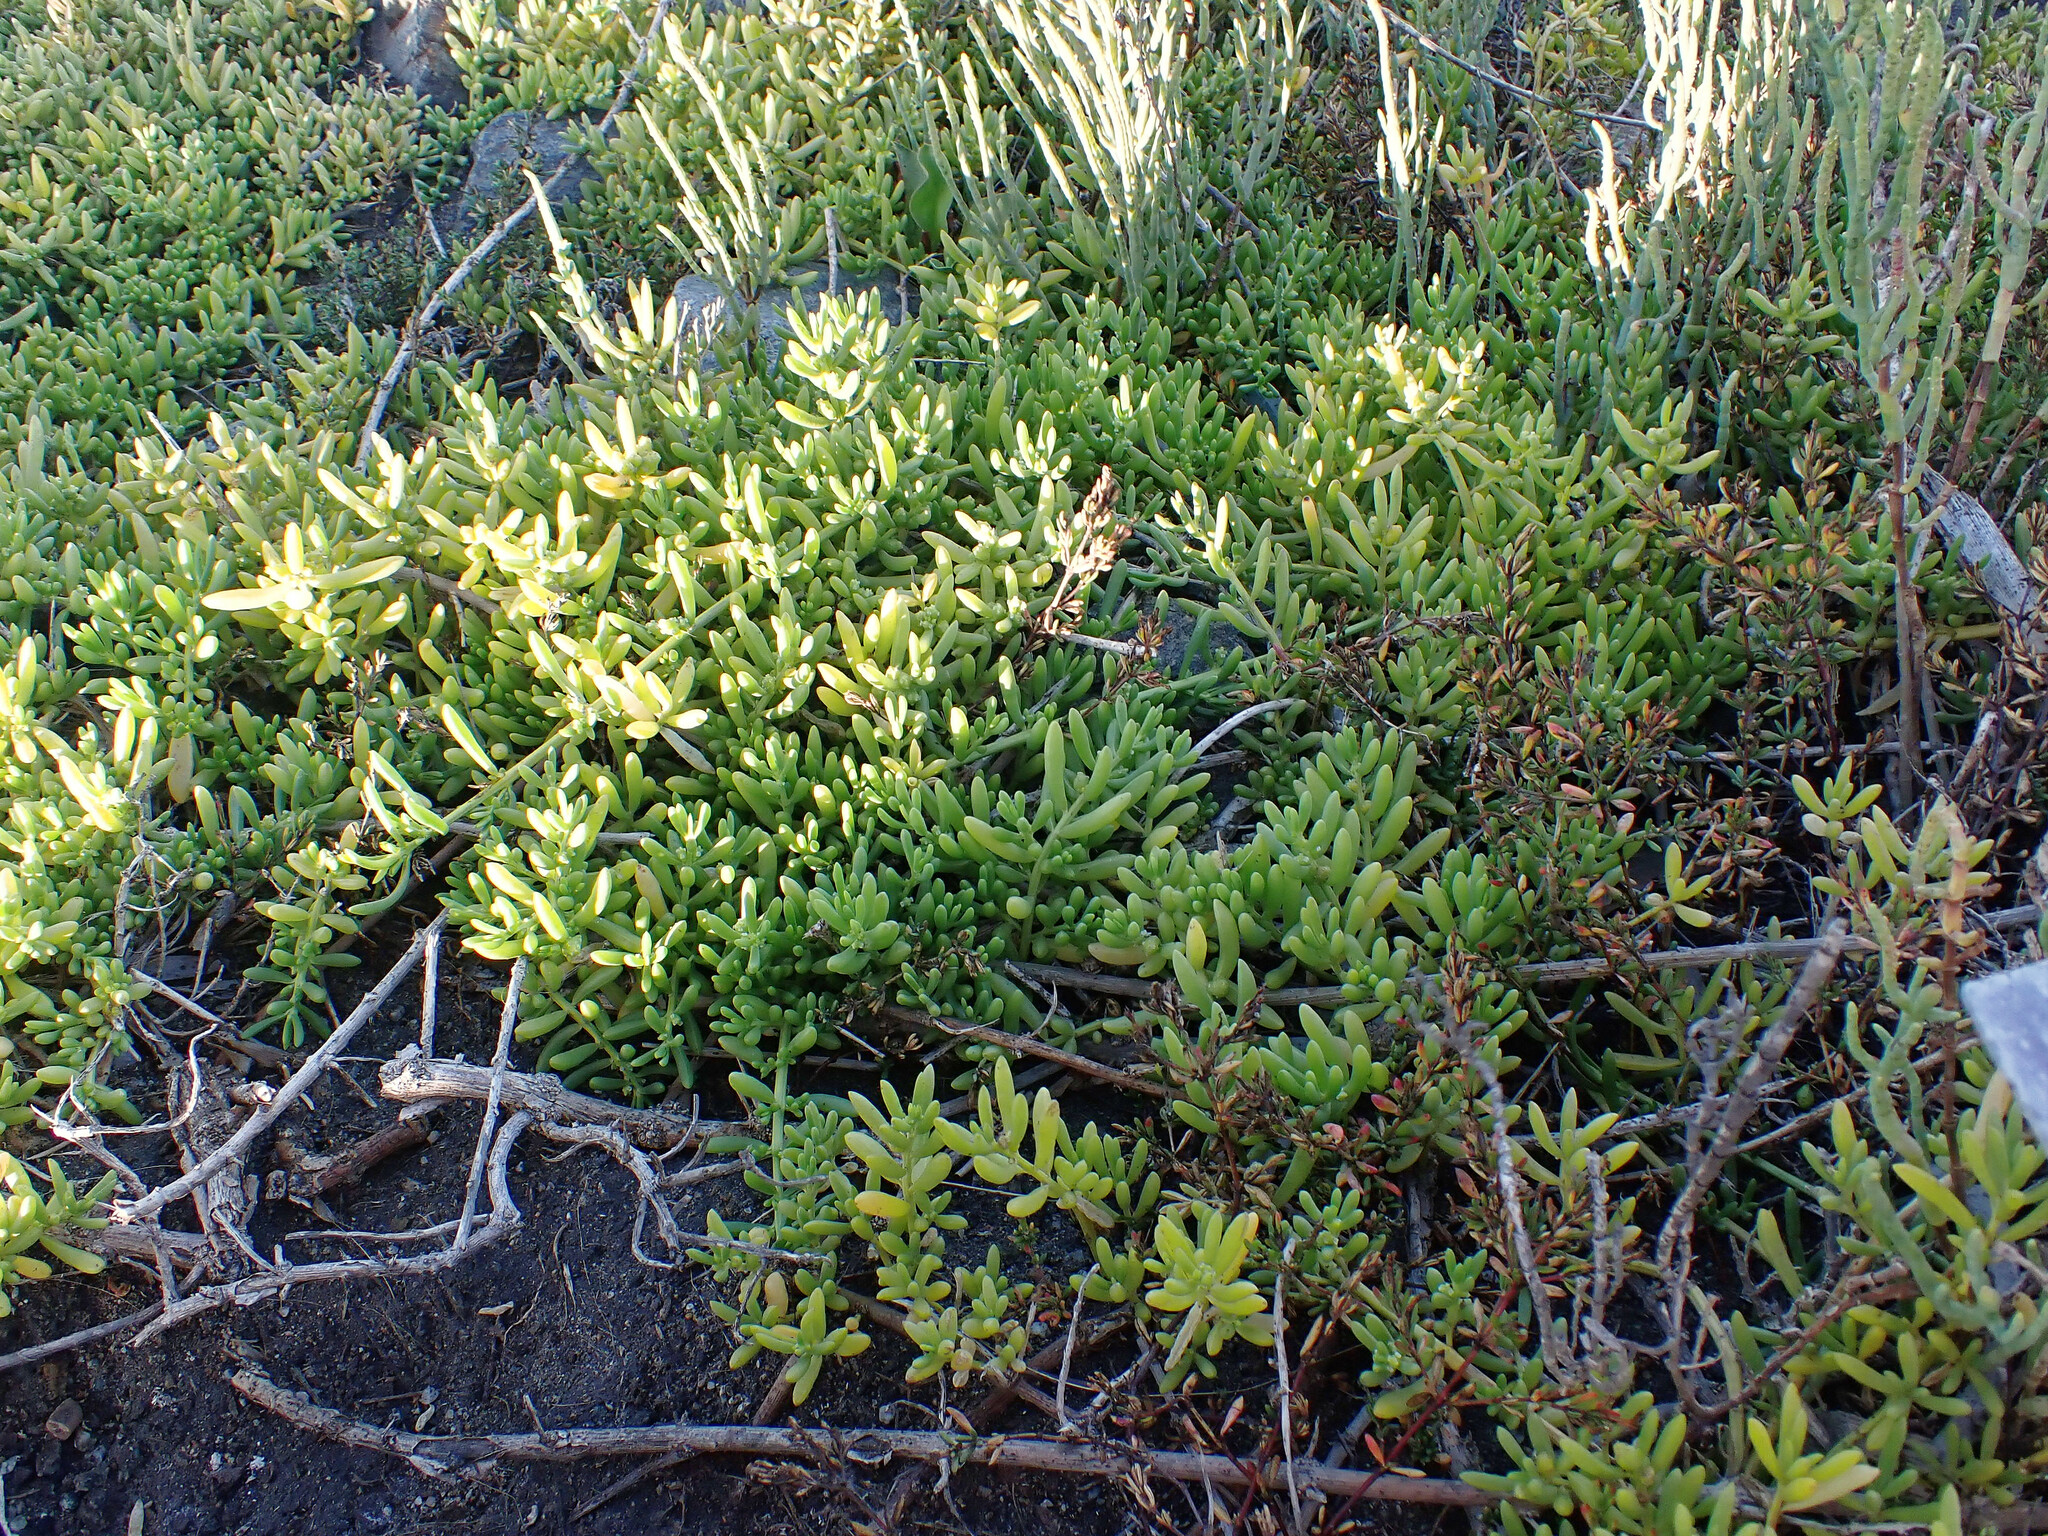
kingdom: Plantae
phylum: Tracheophyta
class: Magnoliopsida
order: Brassicales
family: Bataceae
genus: Batis
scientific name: Batis maritima
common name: Turtleweed
